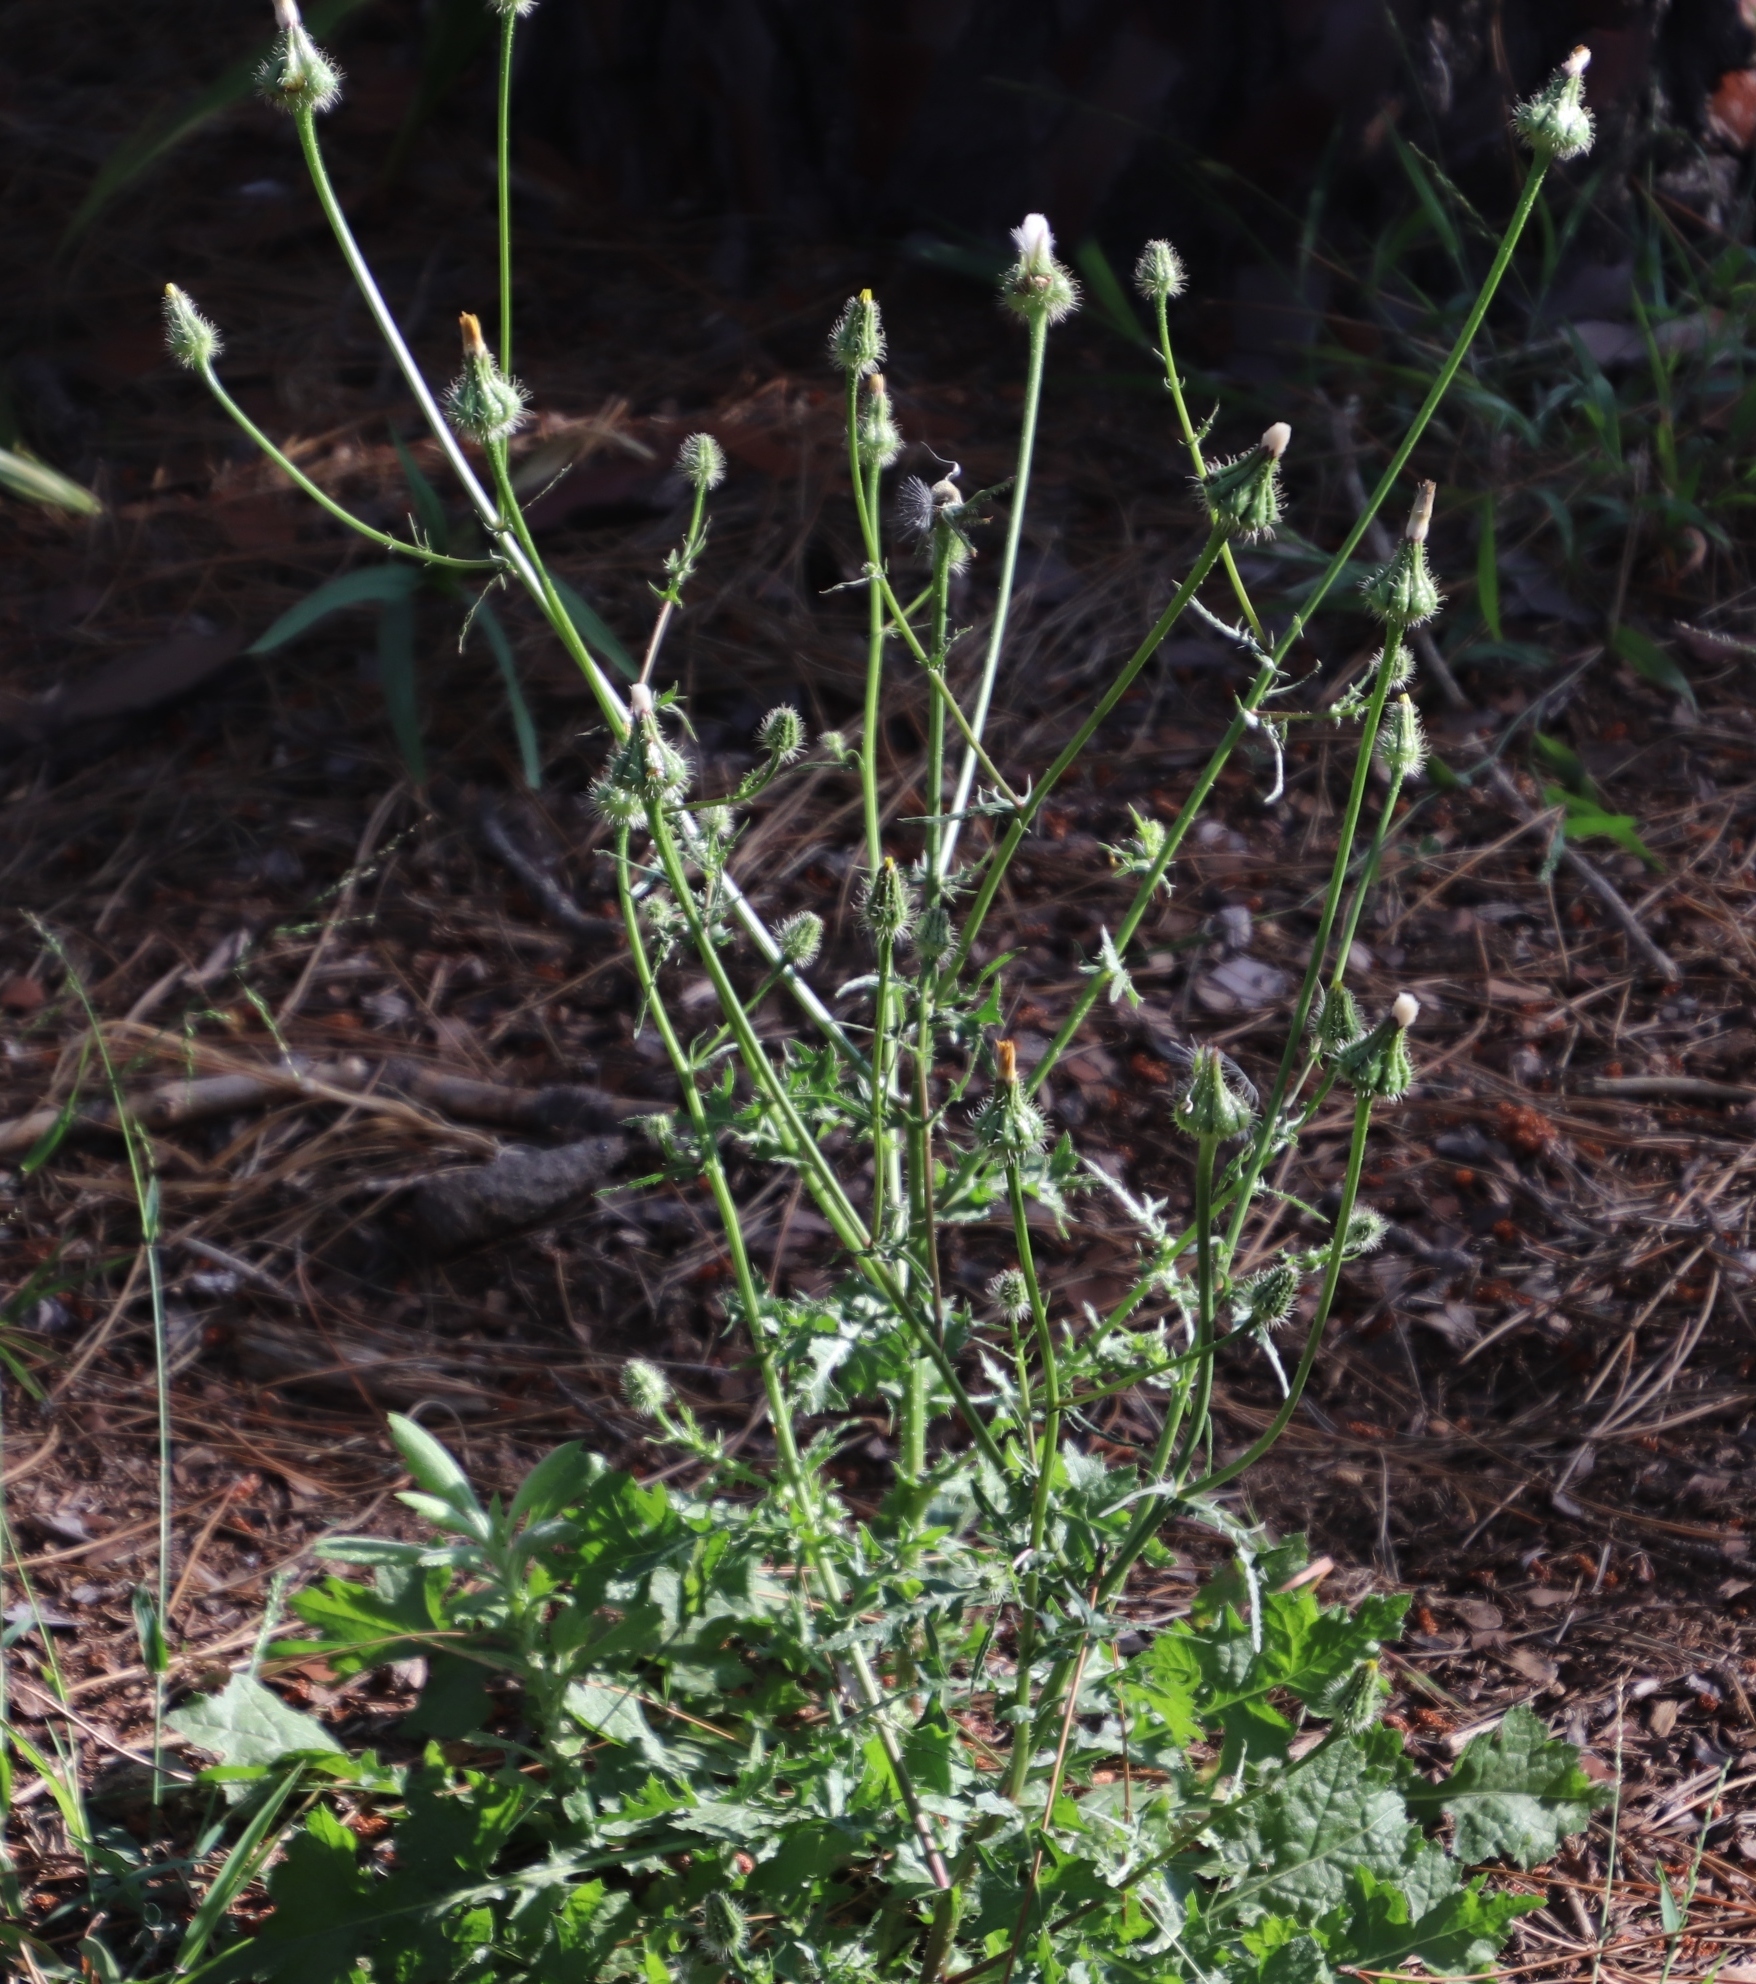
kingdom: Plantae
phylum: Tracheophyta
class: Magnoliopsida
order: Asterales
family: Asteraceae
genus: Urospermum
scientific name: Urospermum picroides
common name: False hawkbit
